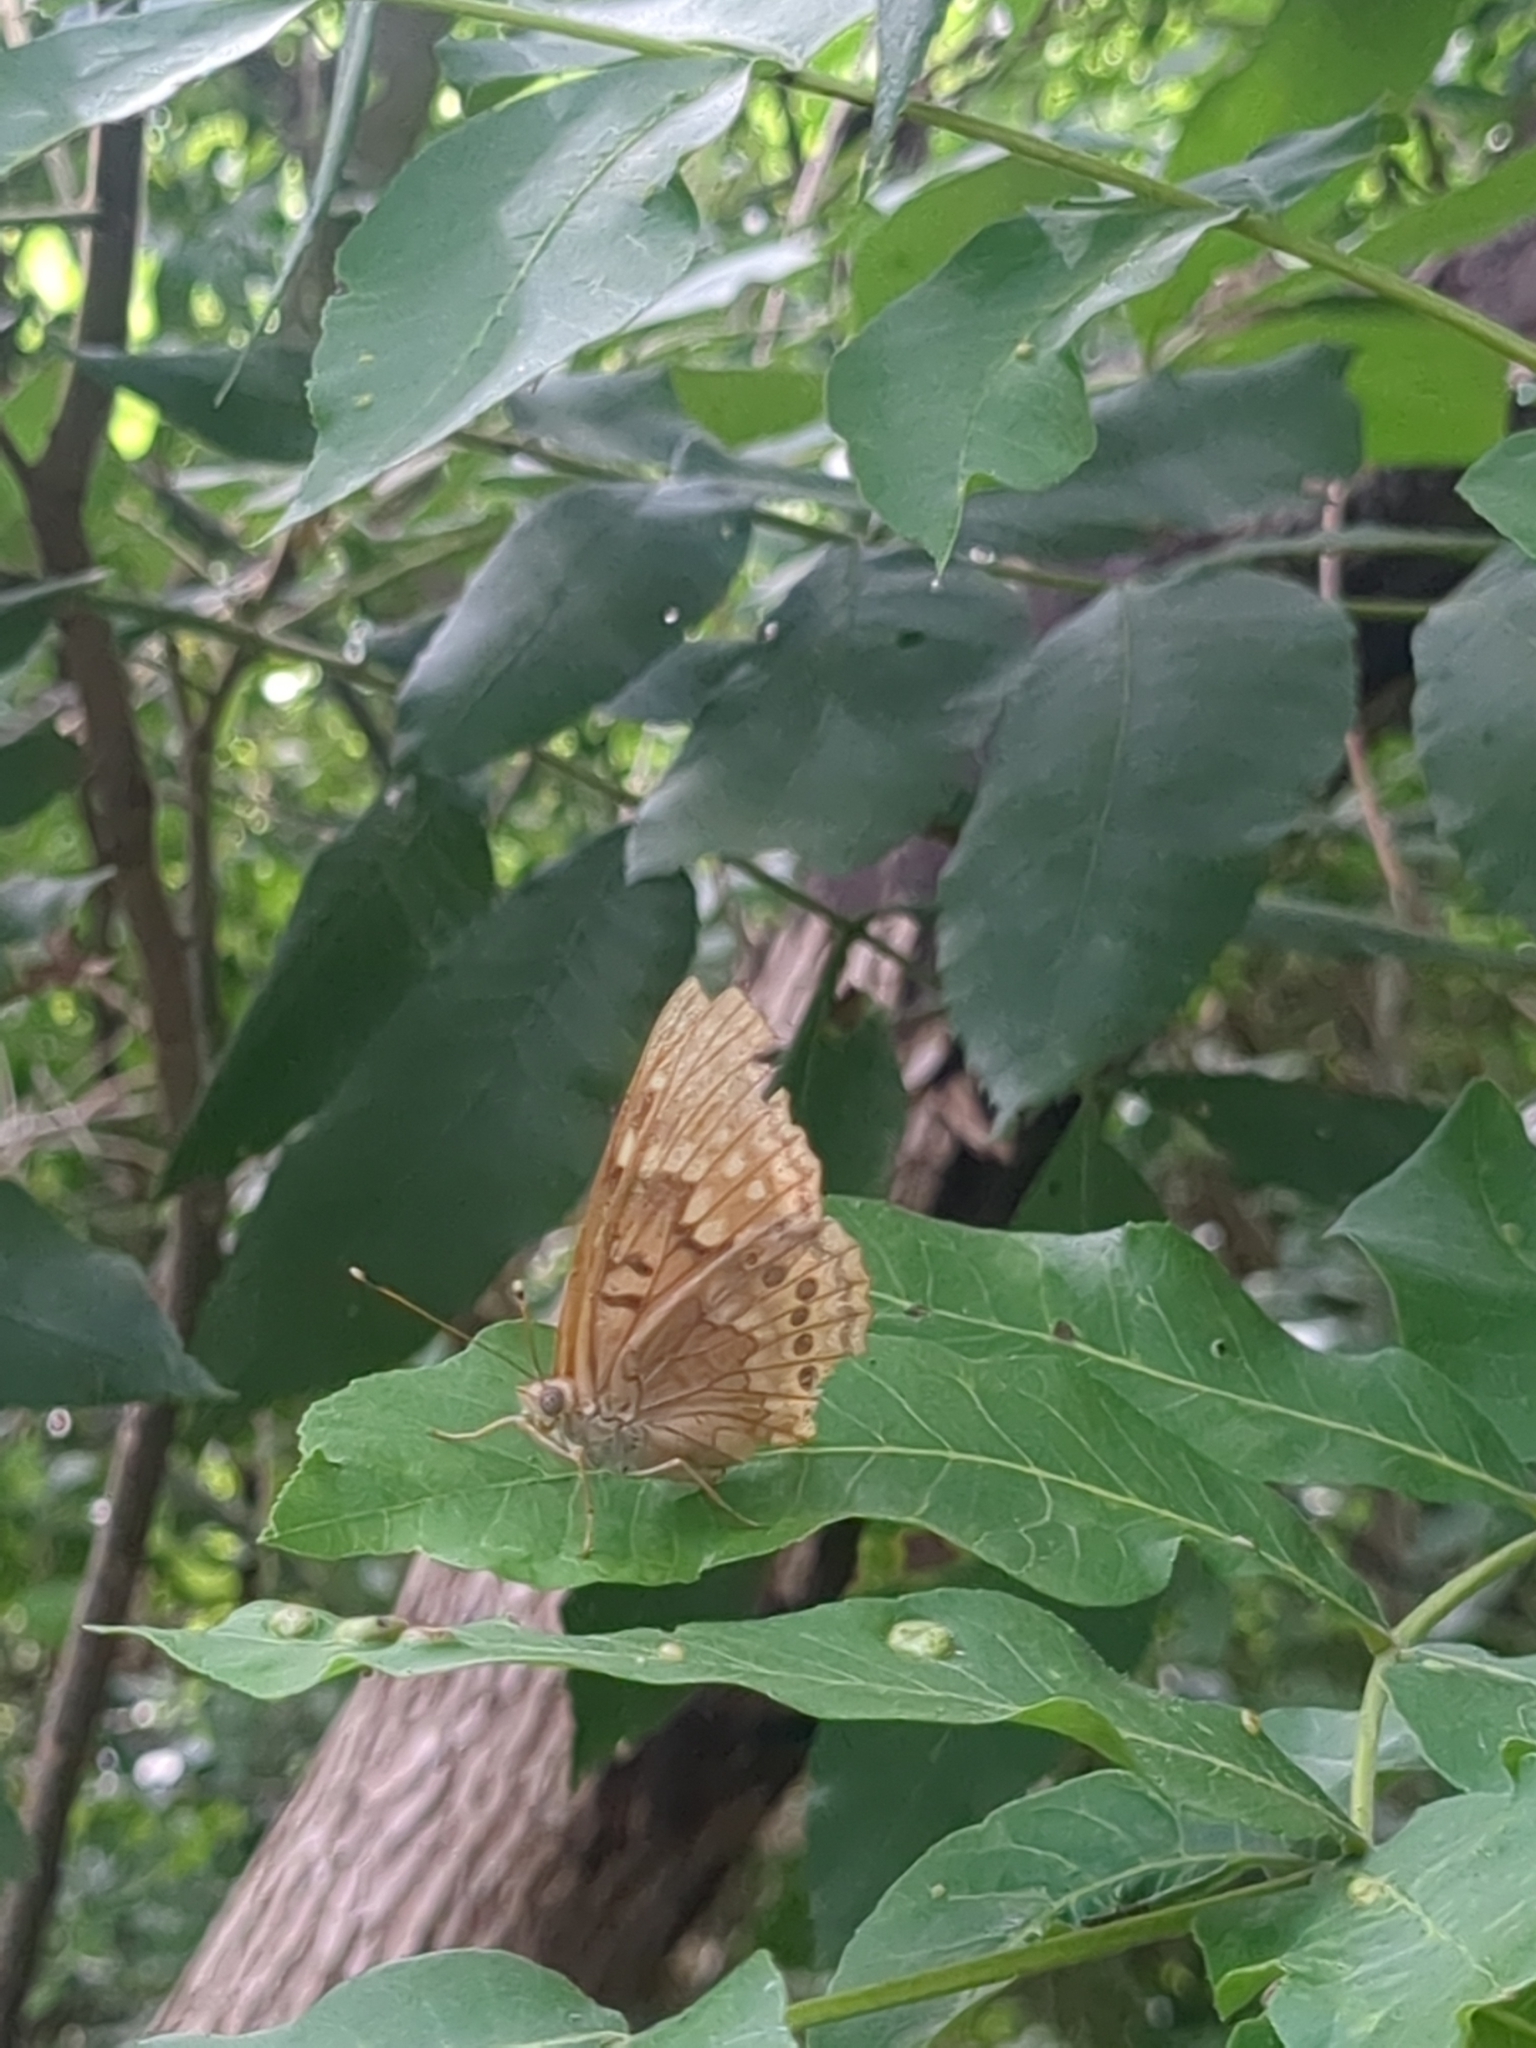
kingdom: Animalia
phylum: Arthropoda
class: Insecta
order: Lepidoptera
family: Nymphalidae
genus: Asterocampa
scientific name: Asterocampa clyton
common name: Tawny emperor
